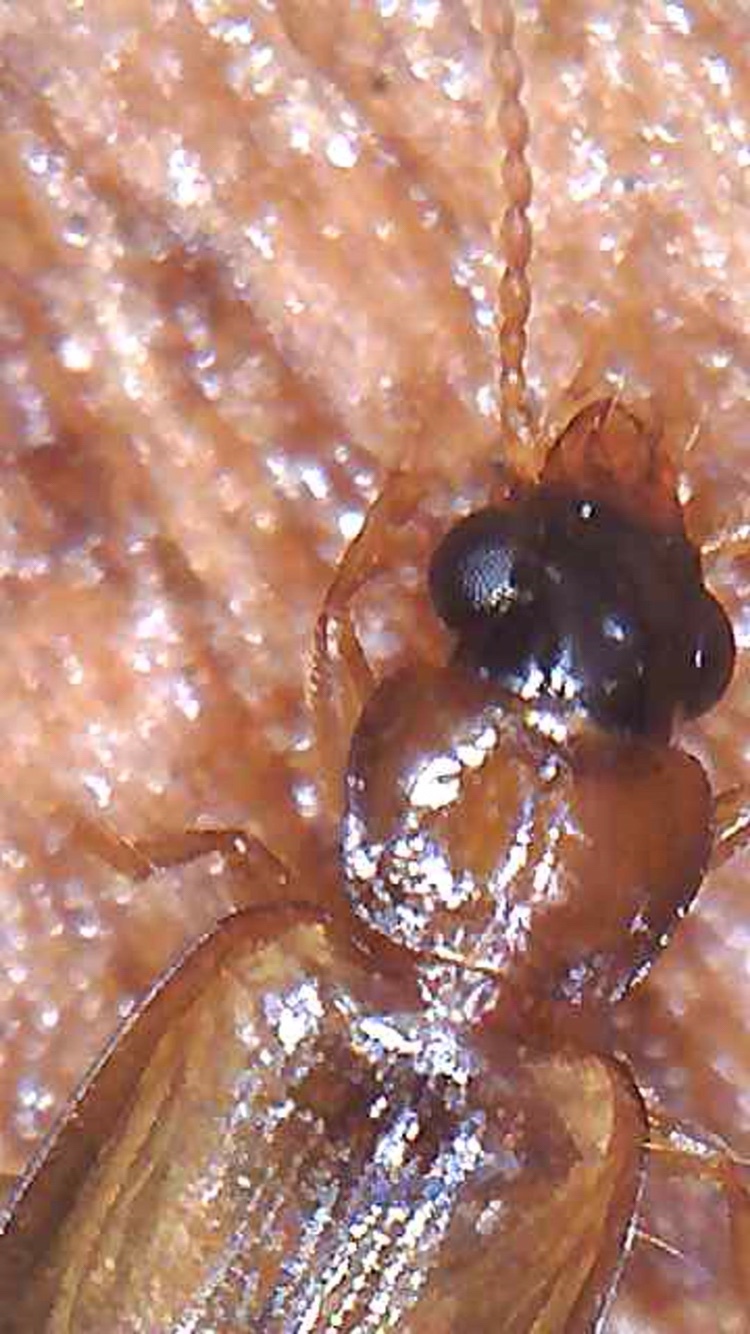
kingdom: Animalia
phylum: Arthropoda
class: Insecta
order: Coleoptera
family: Carabidae
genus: Perigona
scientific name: Perigona nigriceps
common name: Tawny harp ground beetle
